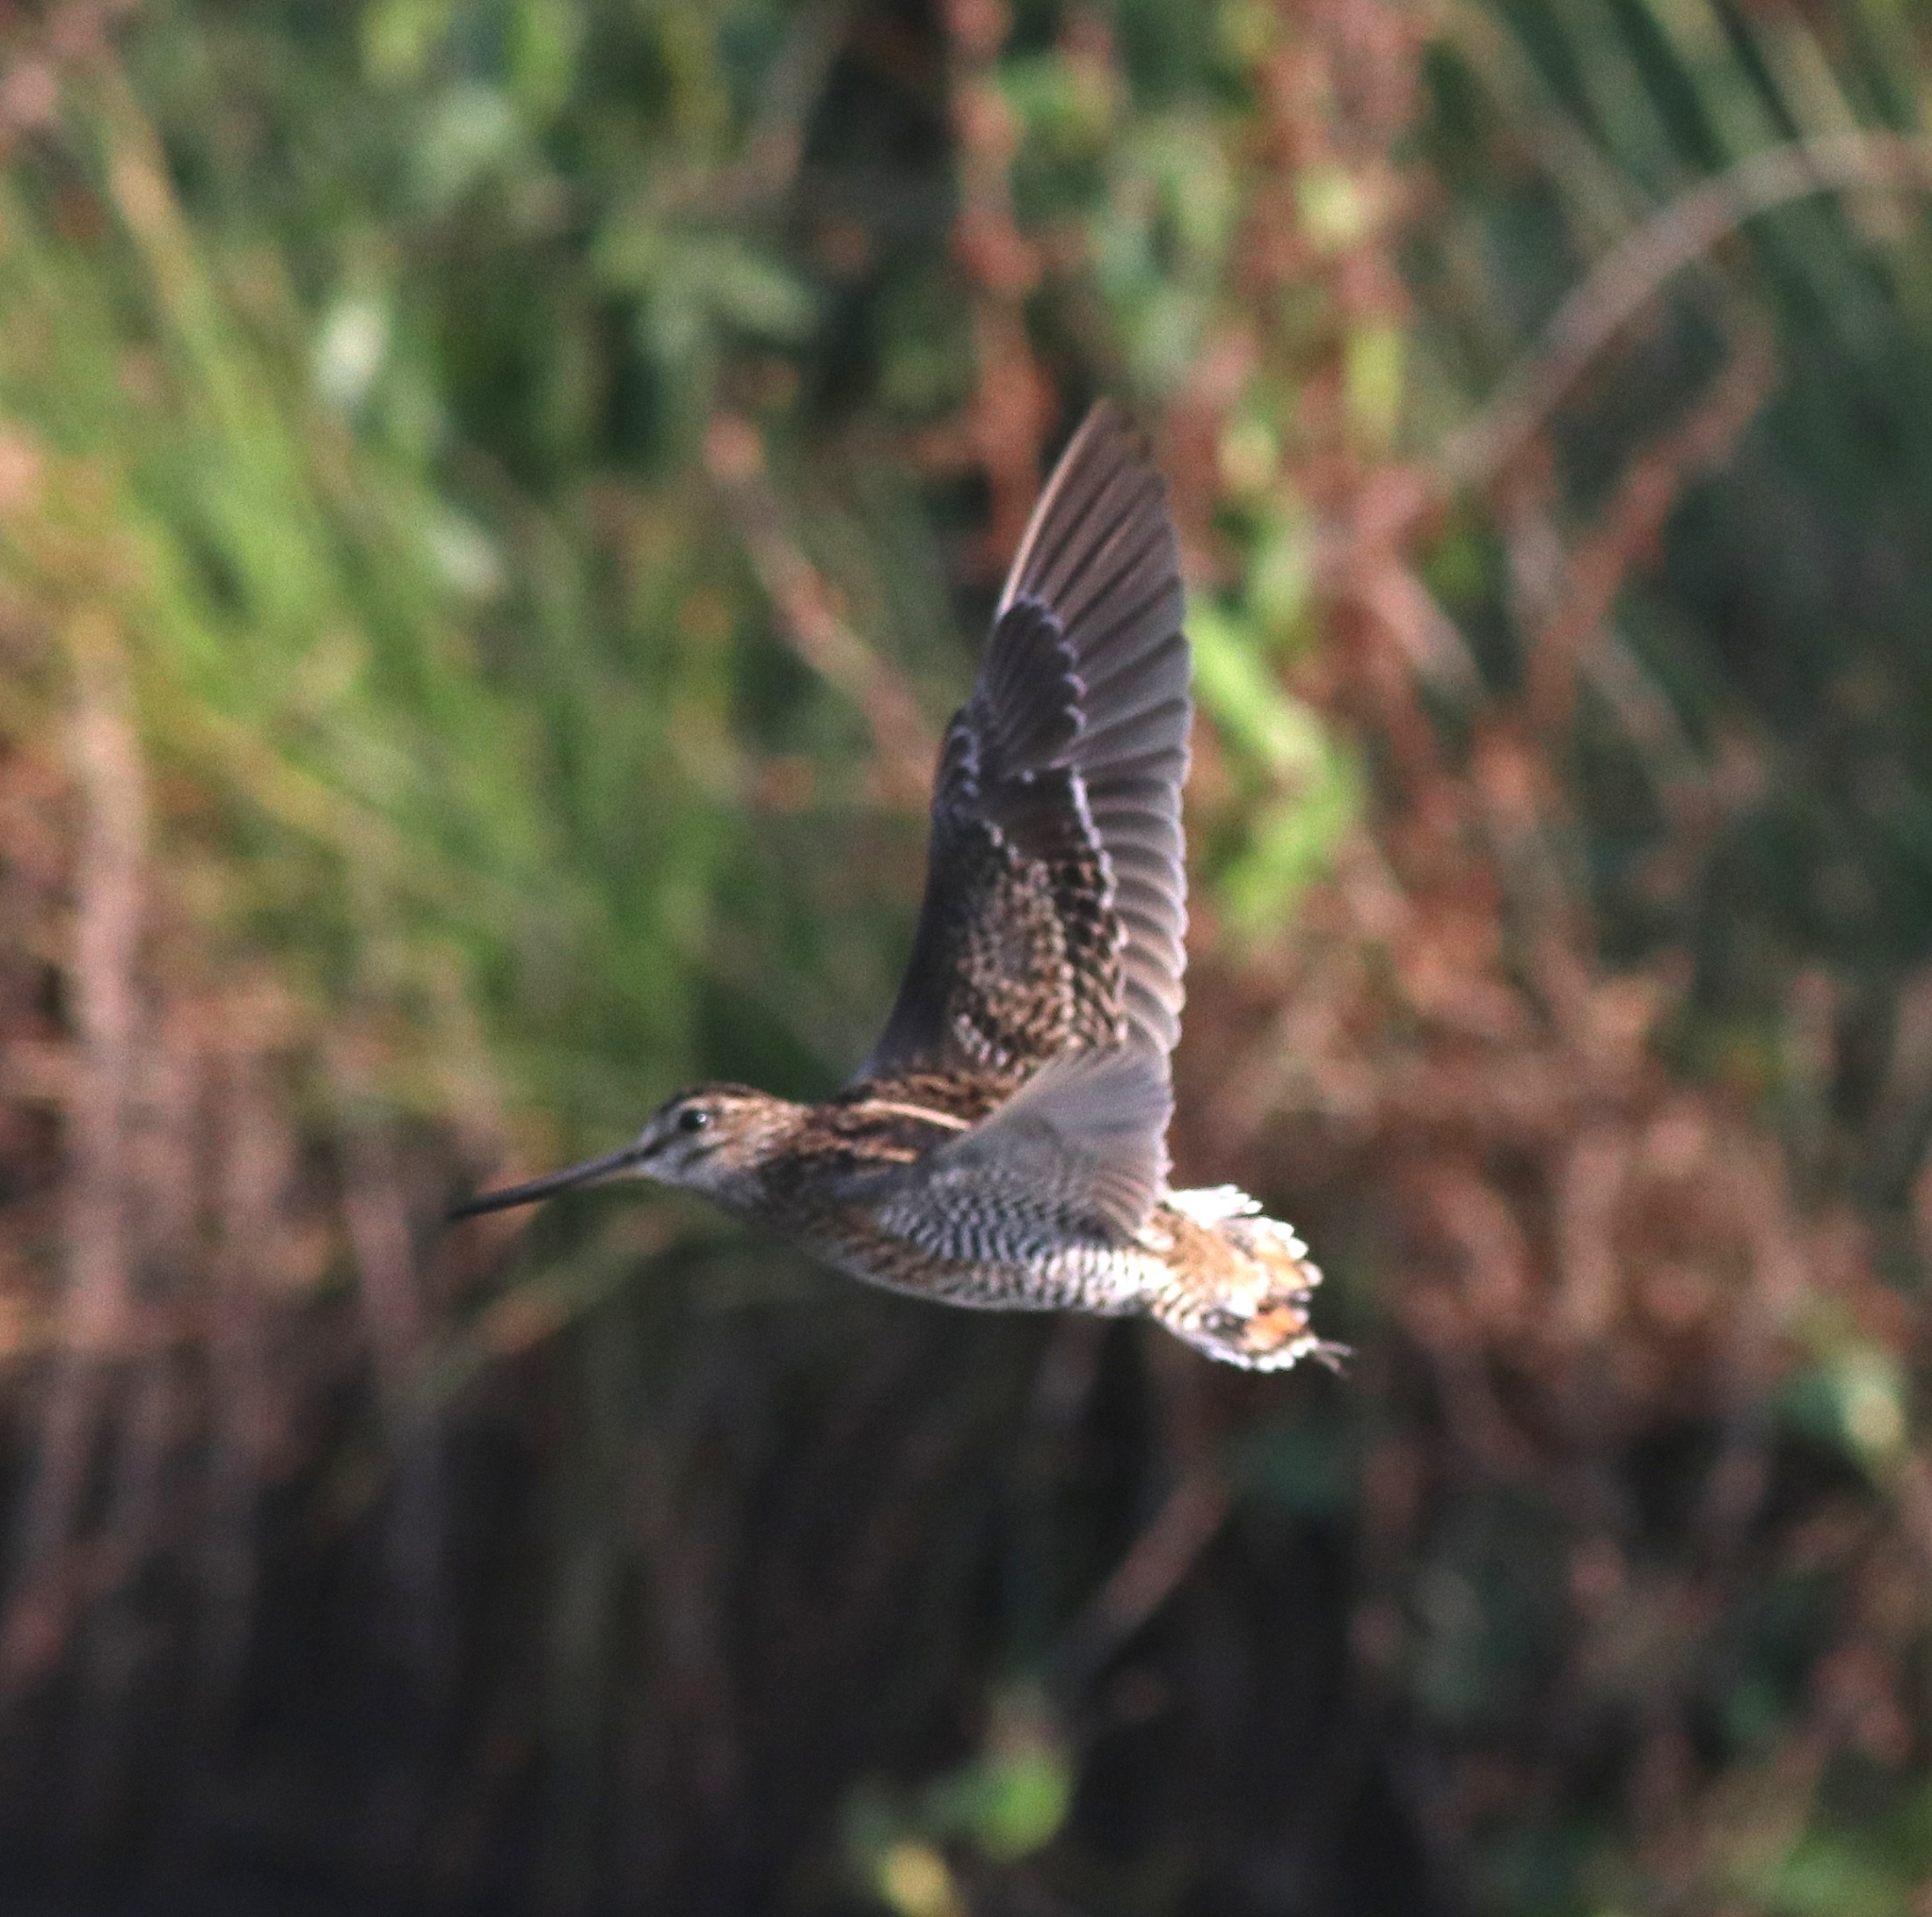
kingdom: Animalia
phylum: Chordata
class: Aves
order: Charadriiformes
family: Scolopacidae
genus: Gallinago
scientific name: Gallinago stenura
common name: Pin-tailed snipe
